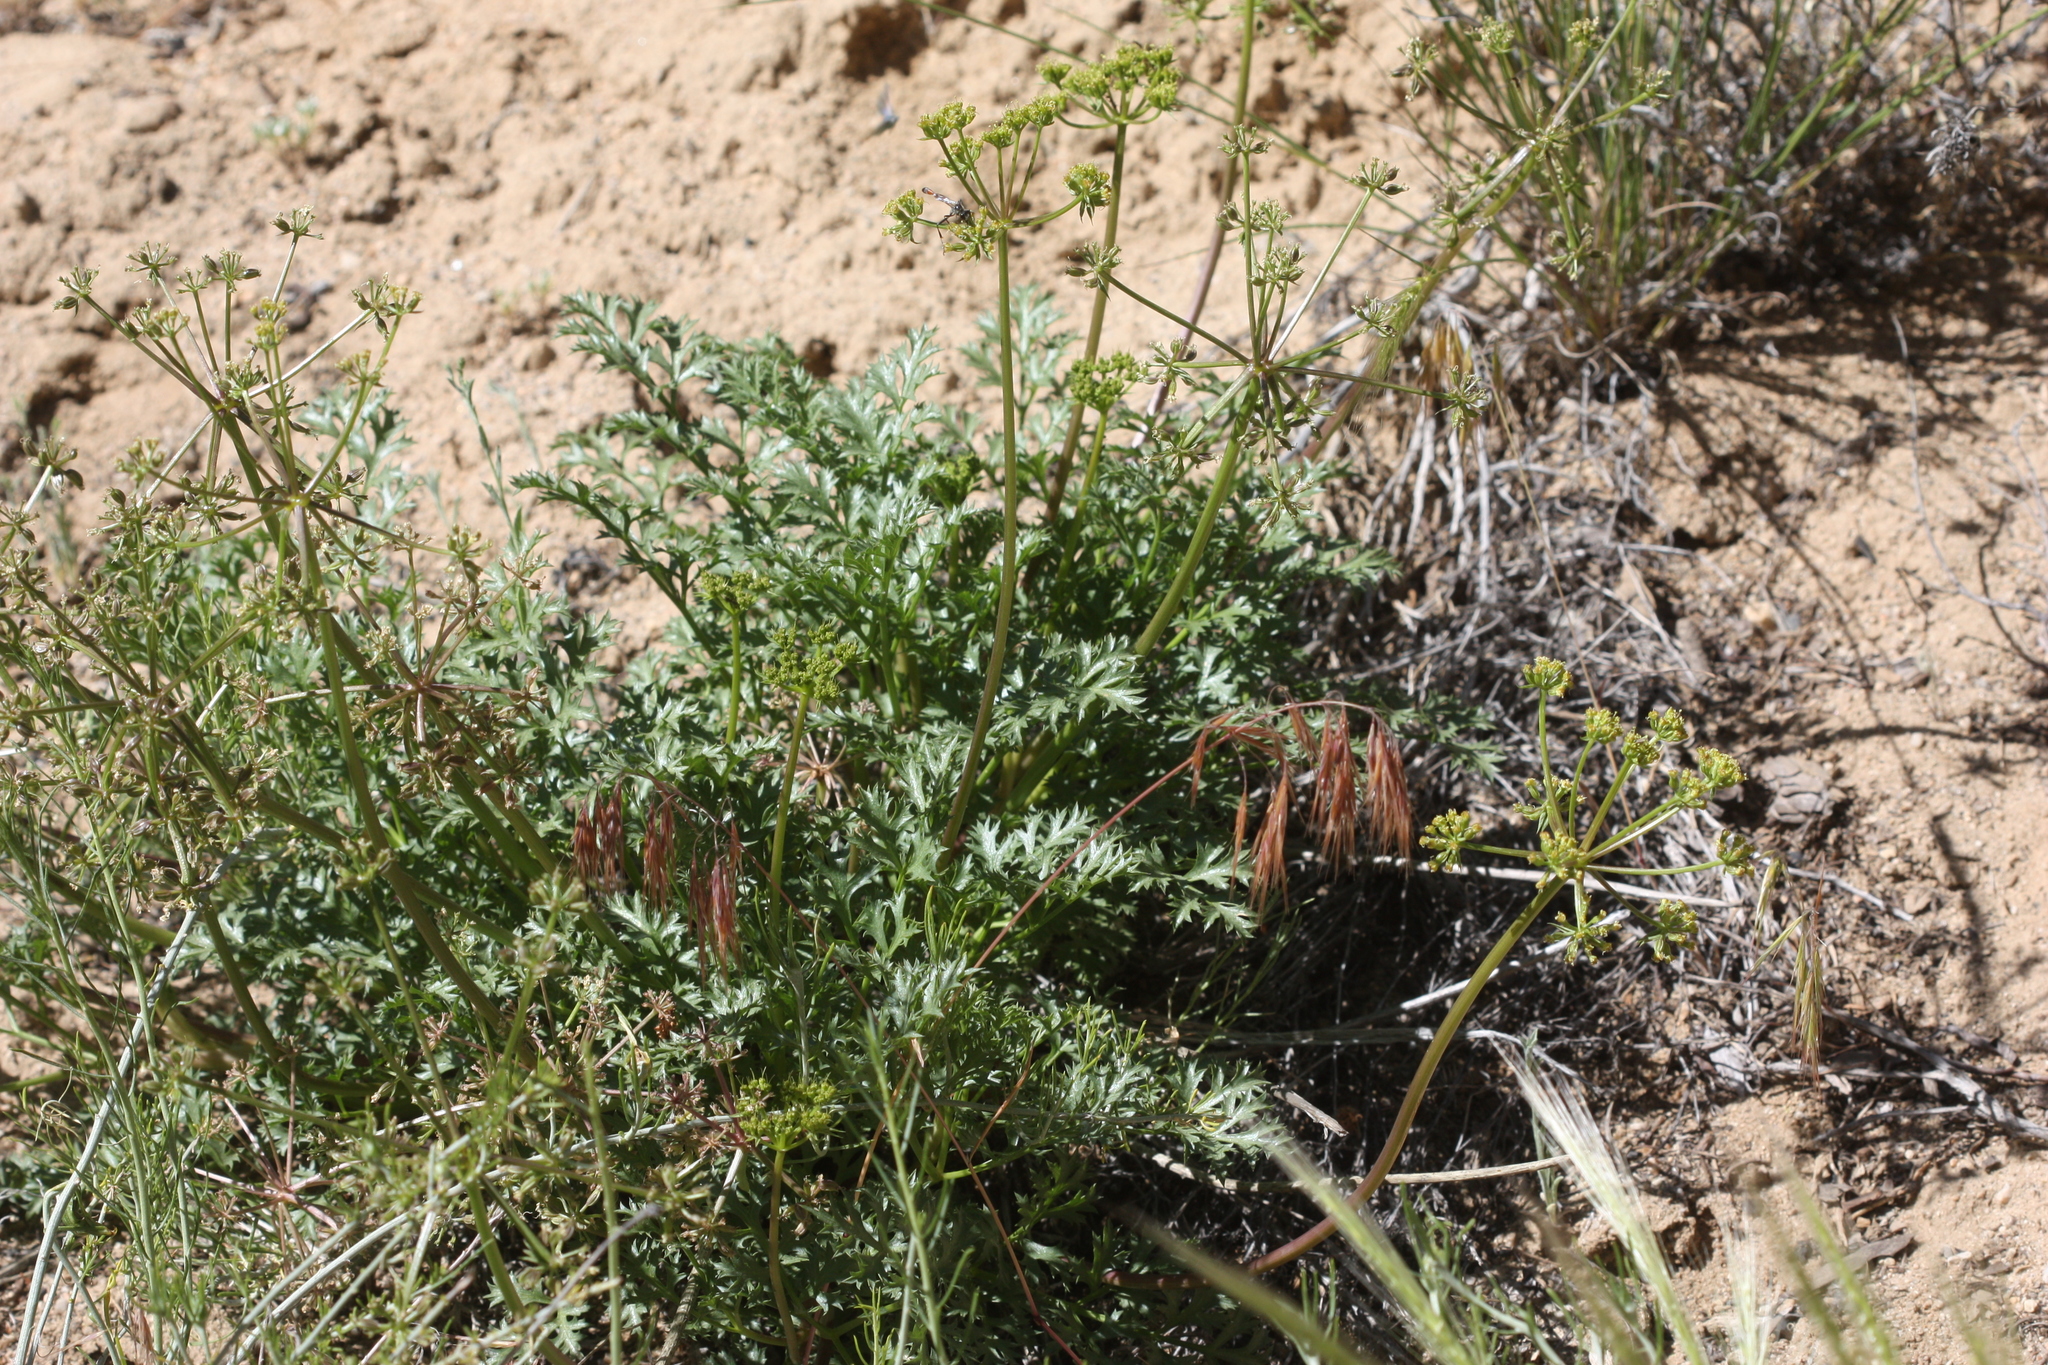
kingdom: Plantae
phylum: Tracheophyta
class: Magnoliopsida
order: Apiales
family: Apiaceae
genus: Tauschia
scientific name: Tauschia parishii
